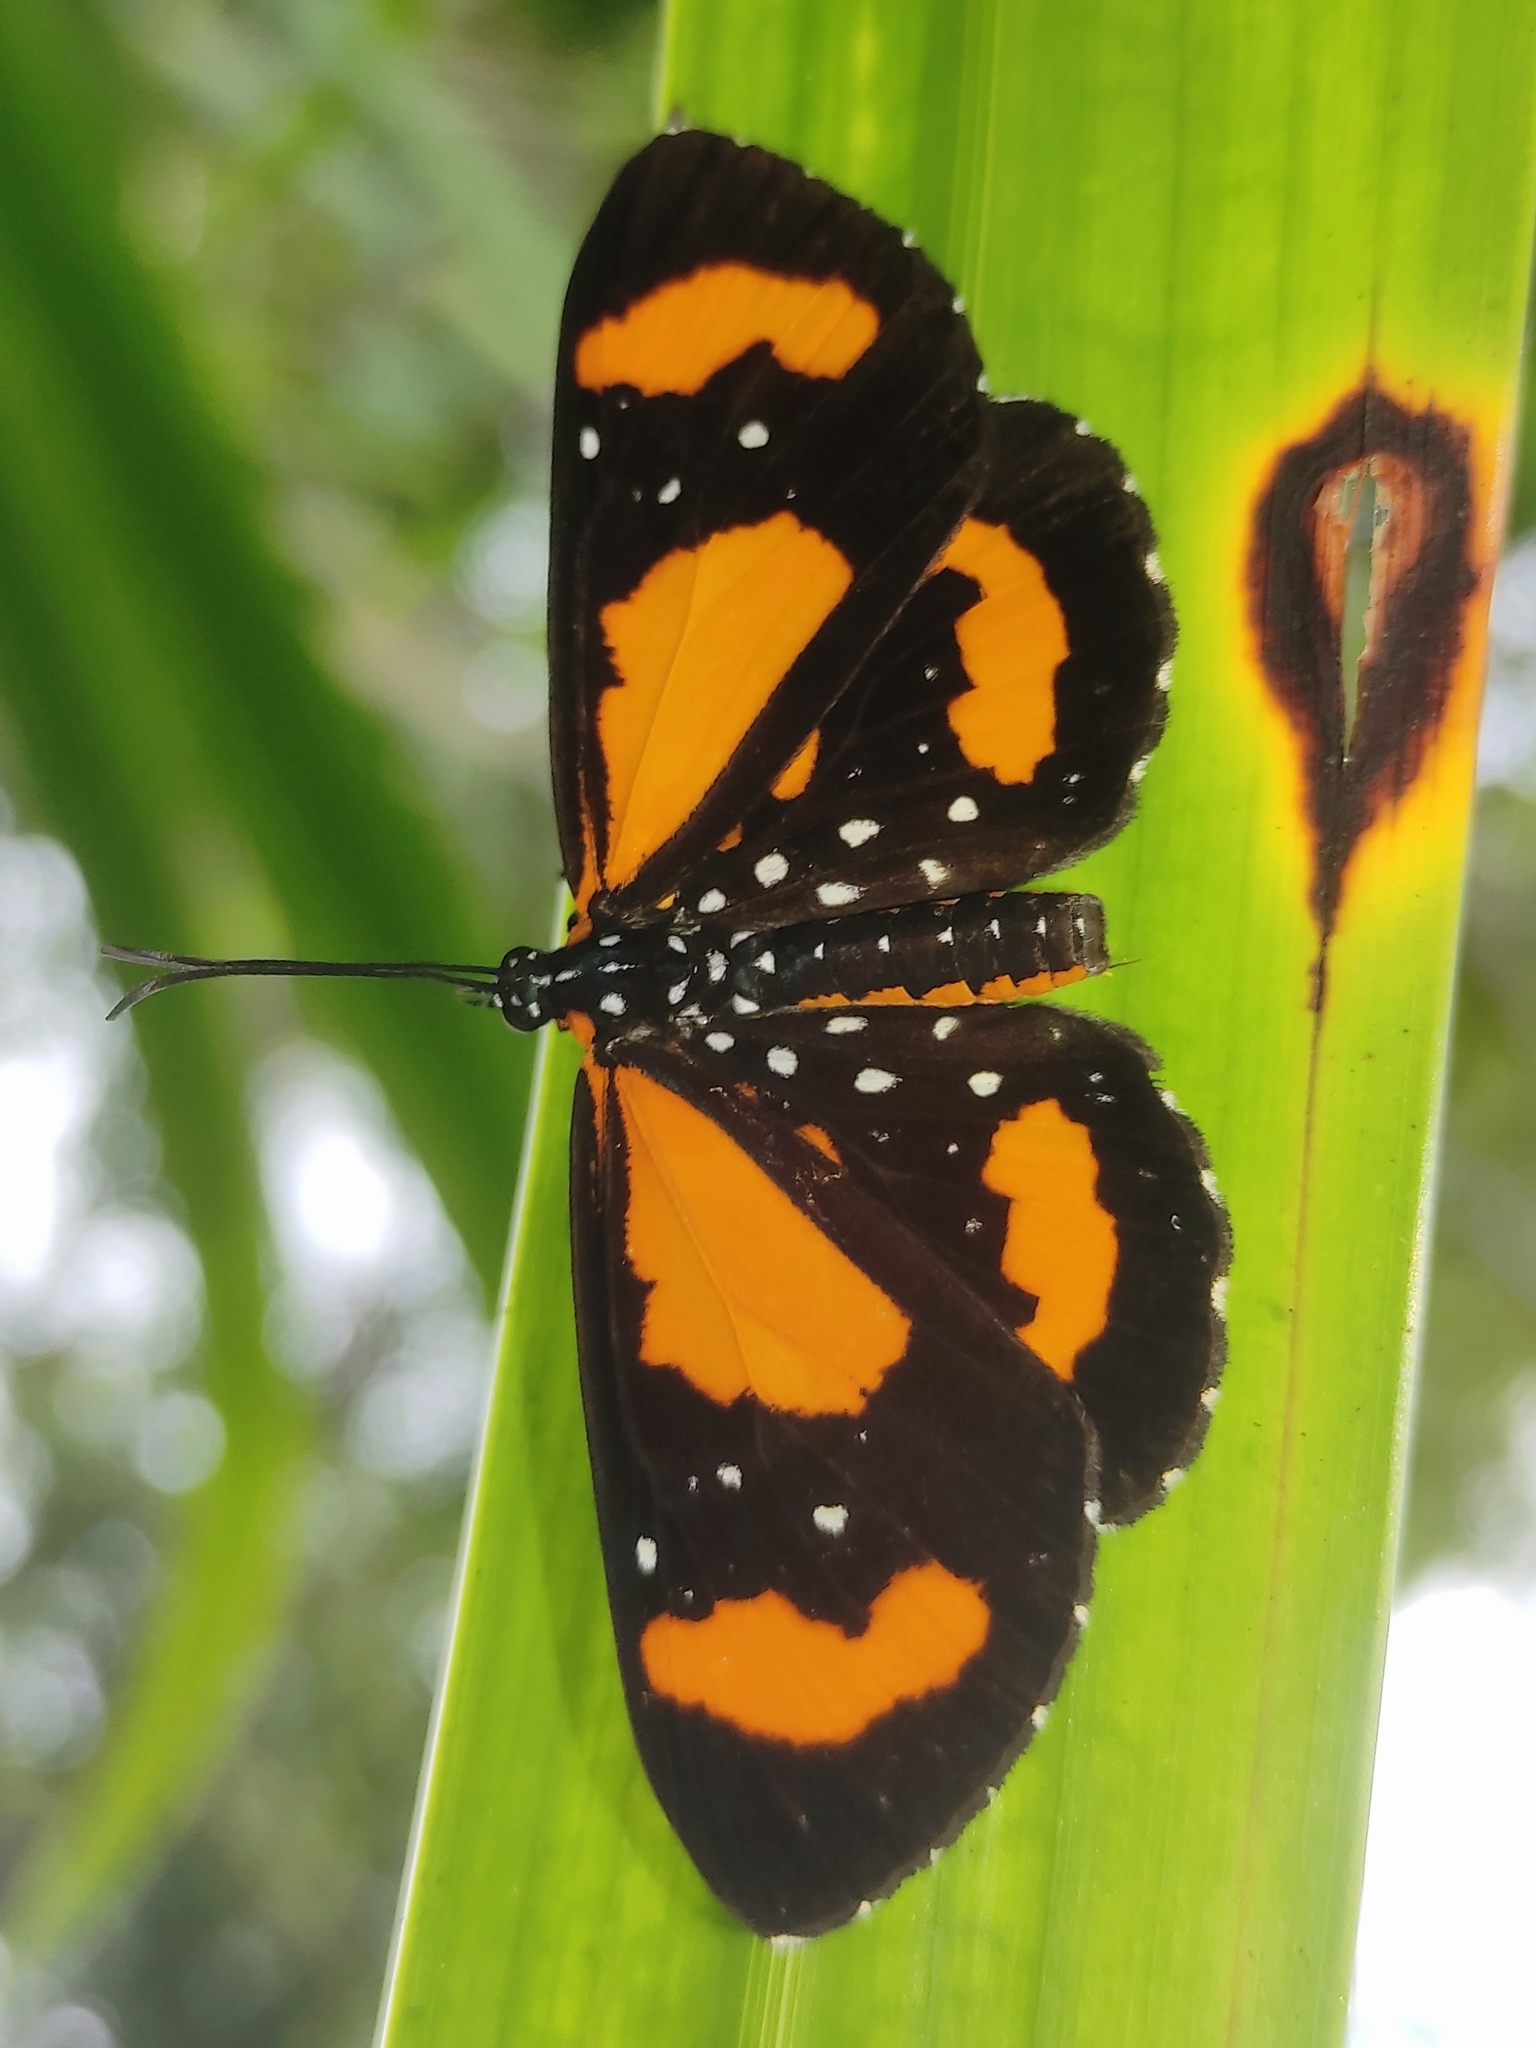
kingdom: Animalia
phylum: Arthropoda
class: Insecta
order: Lepidoptera
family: Riodinidae
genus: Stalachtis
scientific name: Stalachtis susanna
